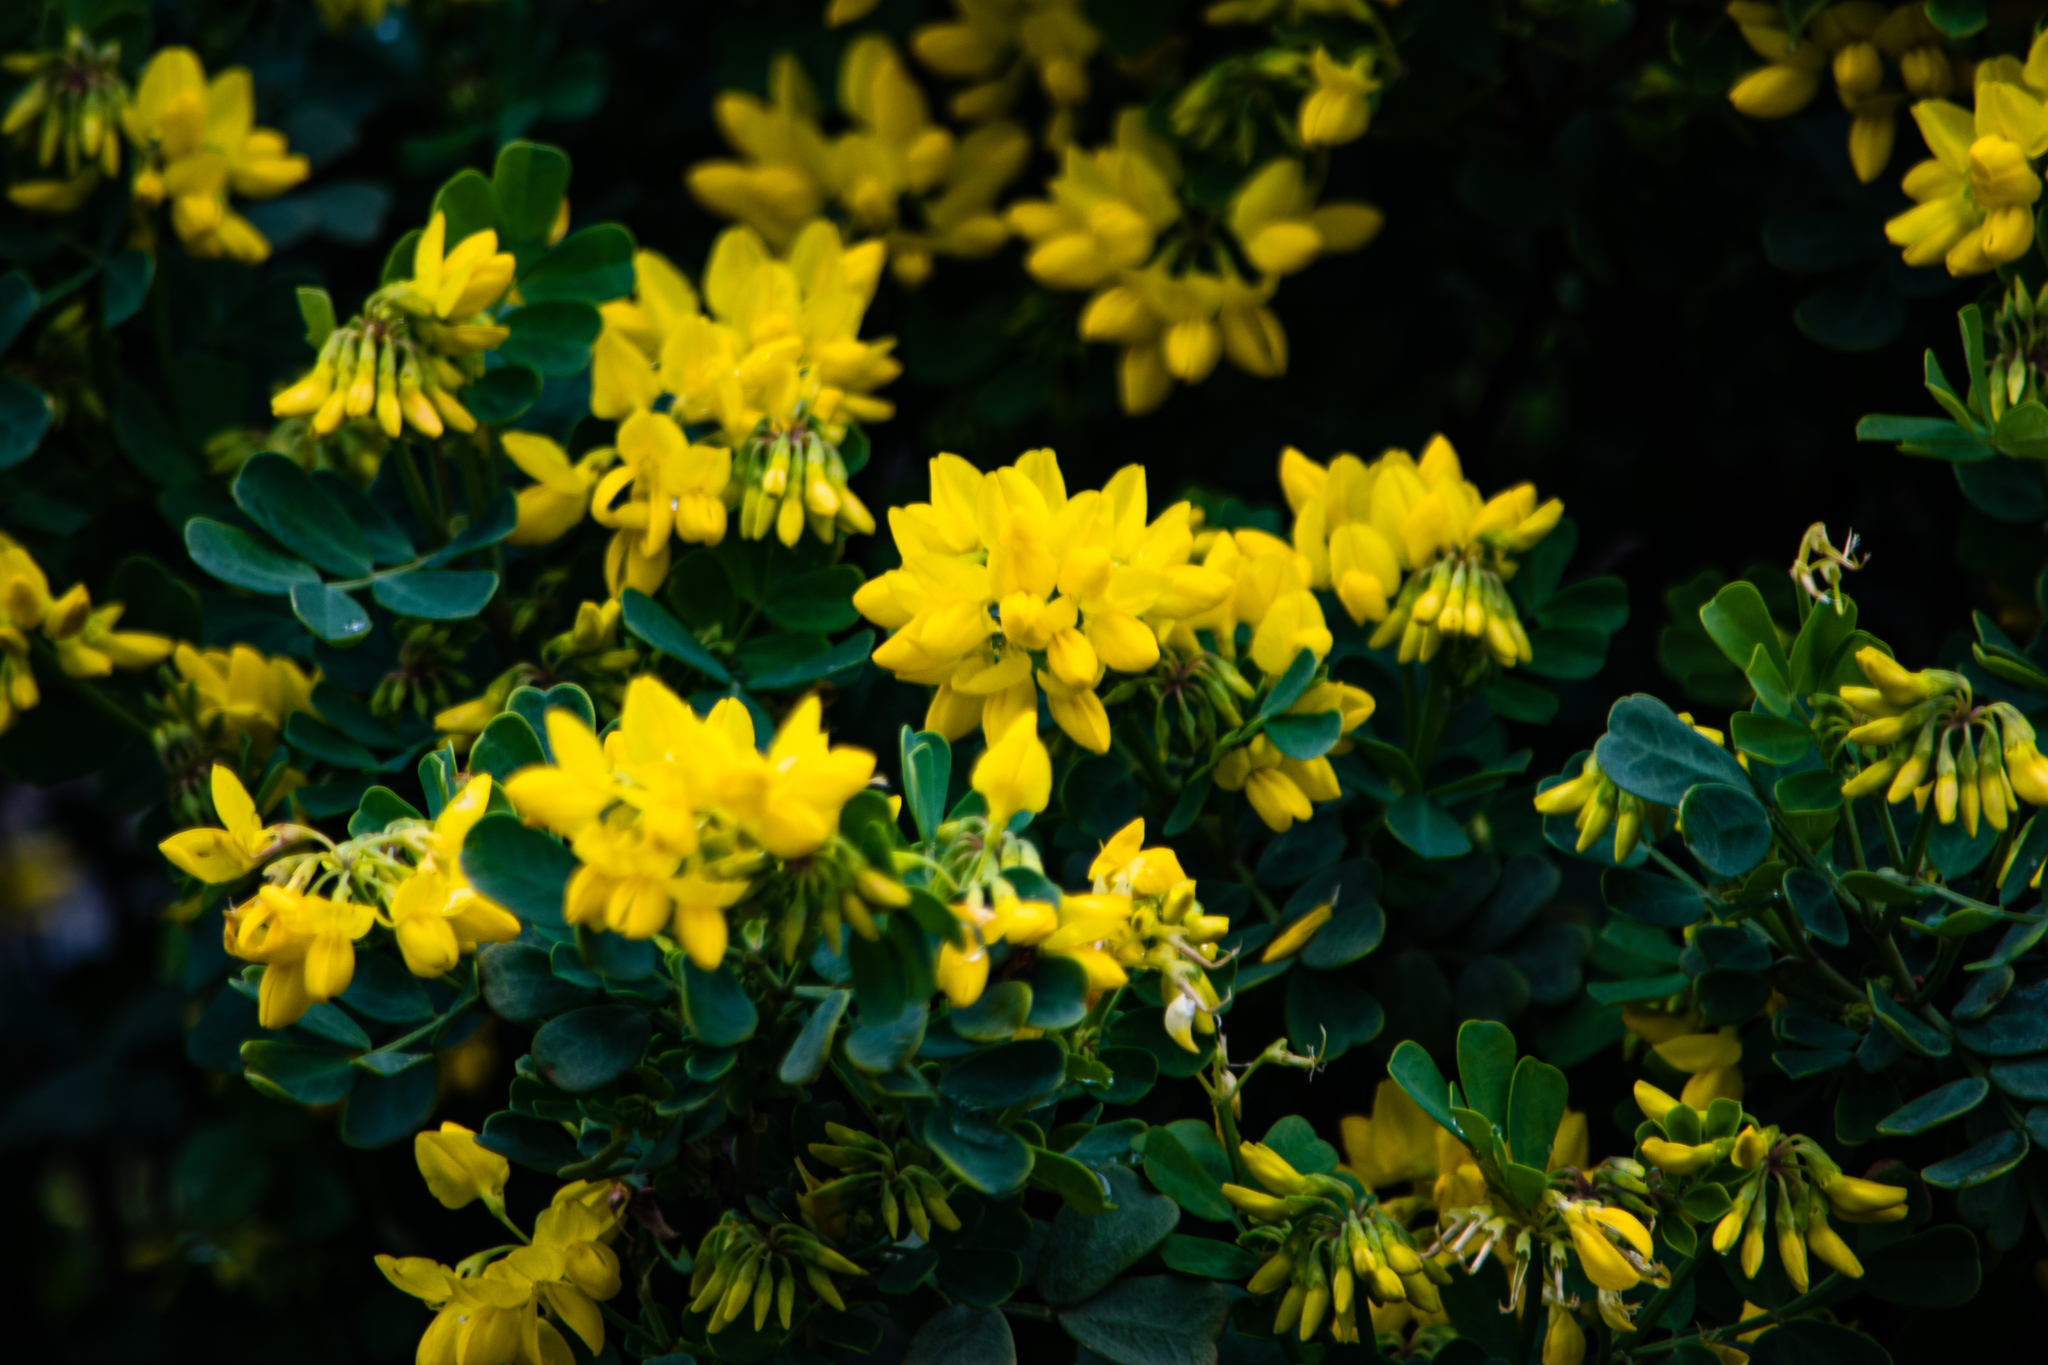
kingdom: Plantae
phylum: Tracheophyta
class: Magnoliopsida
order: Fabales
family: Fabaceae
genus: Coronilla
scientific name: Coronilla valentina
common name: Shrubby scorpion-vetch
